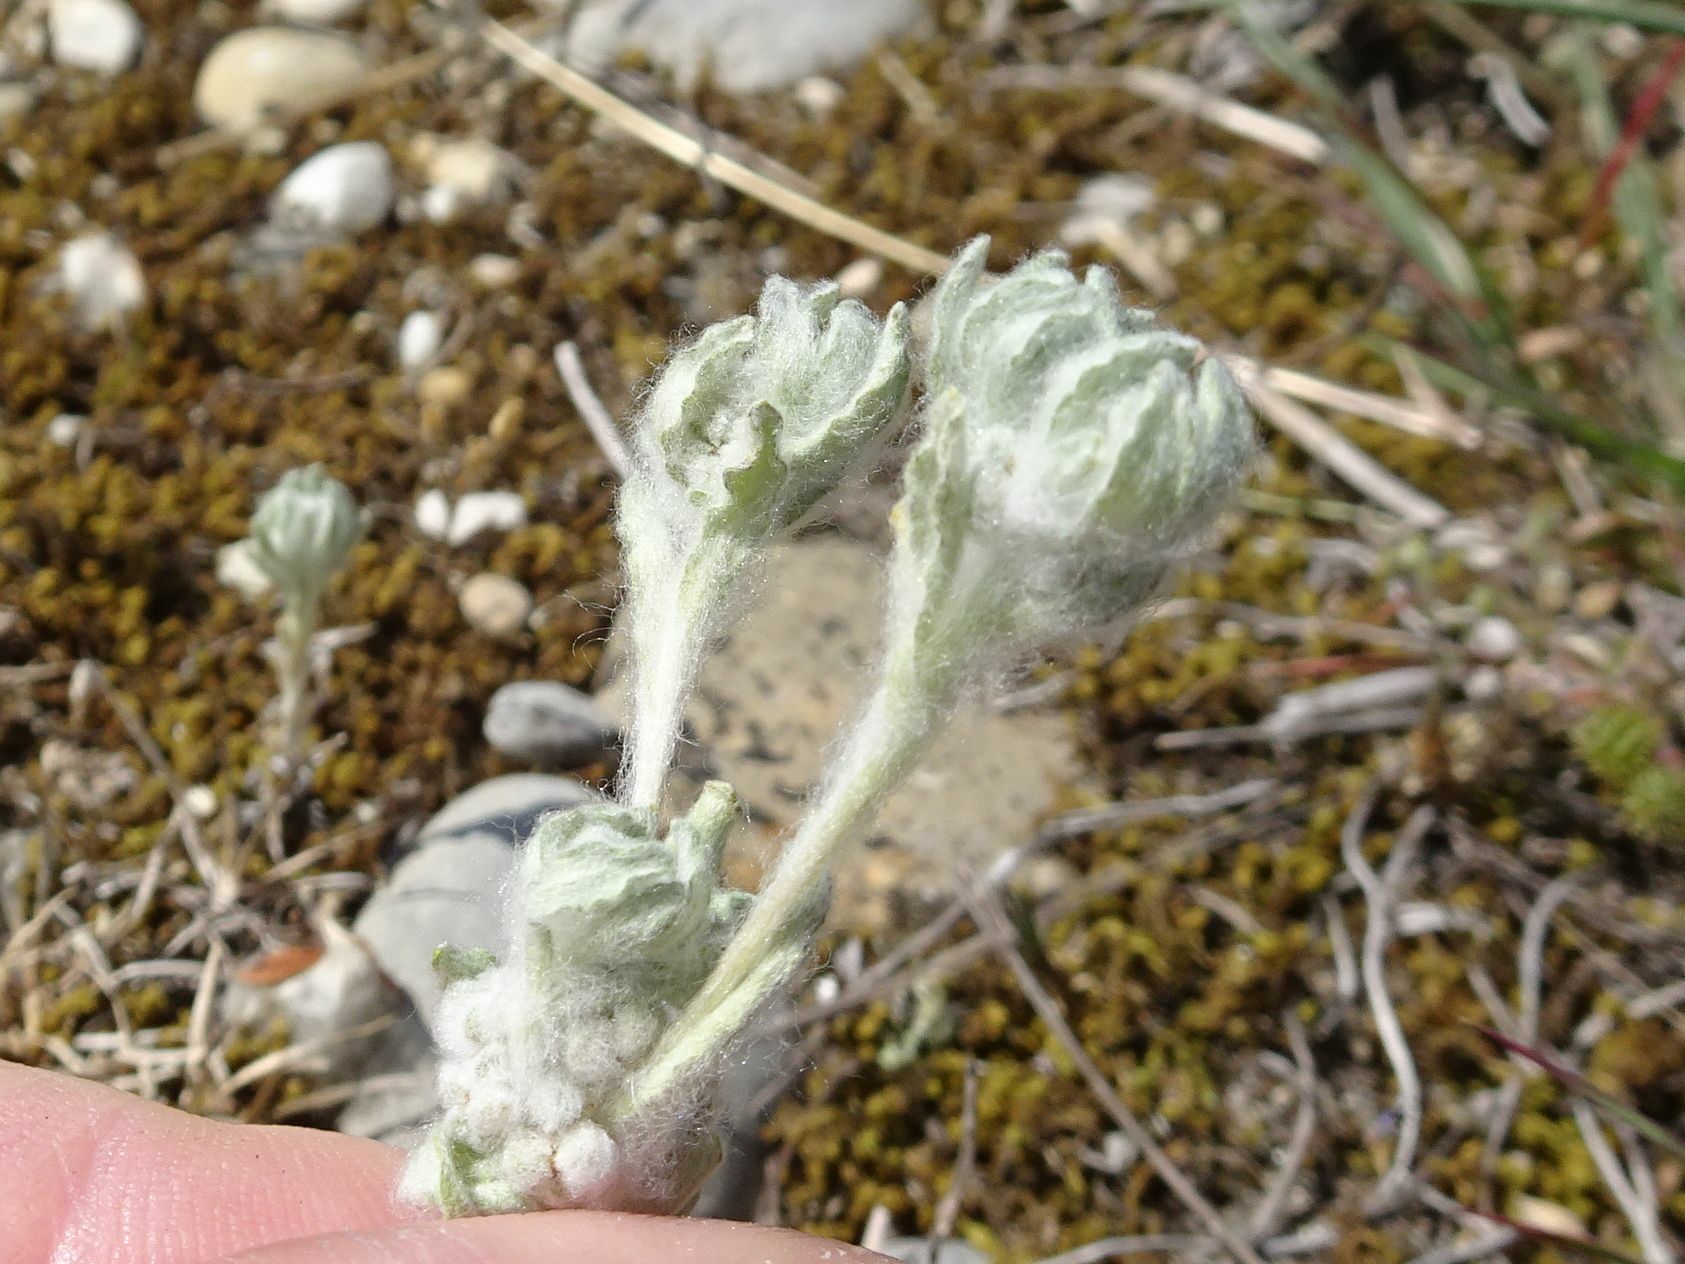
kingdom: Plantae
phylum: Tracheophyta
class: Magnoliopsida
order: Asterales
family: Asteraceae
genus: Bombycilaena
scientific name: Bombycilaena erecta
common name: Micropus
